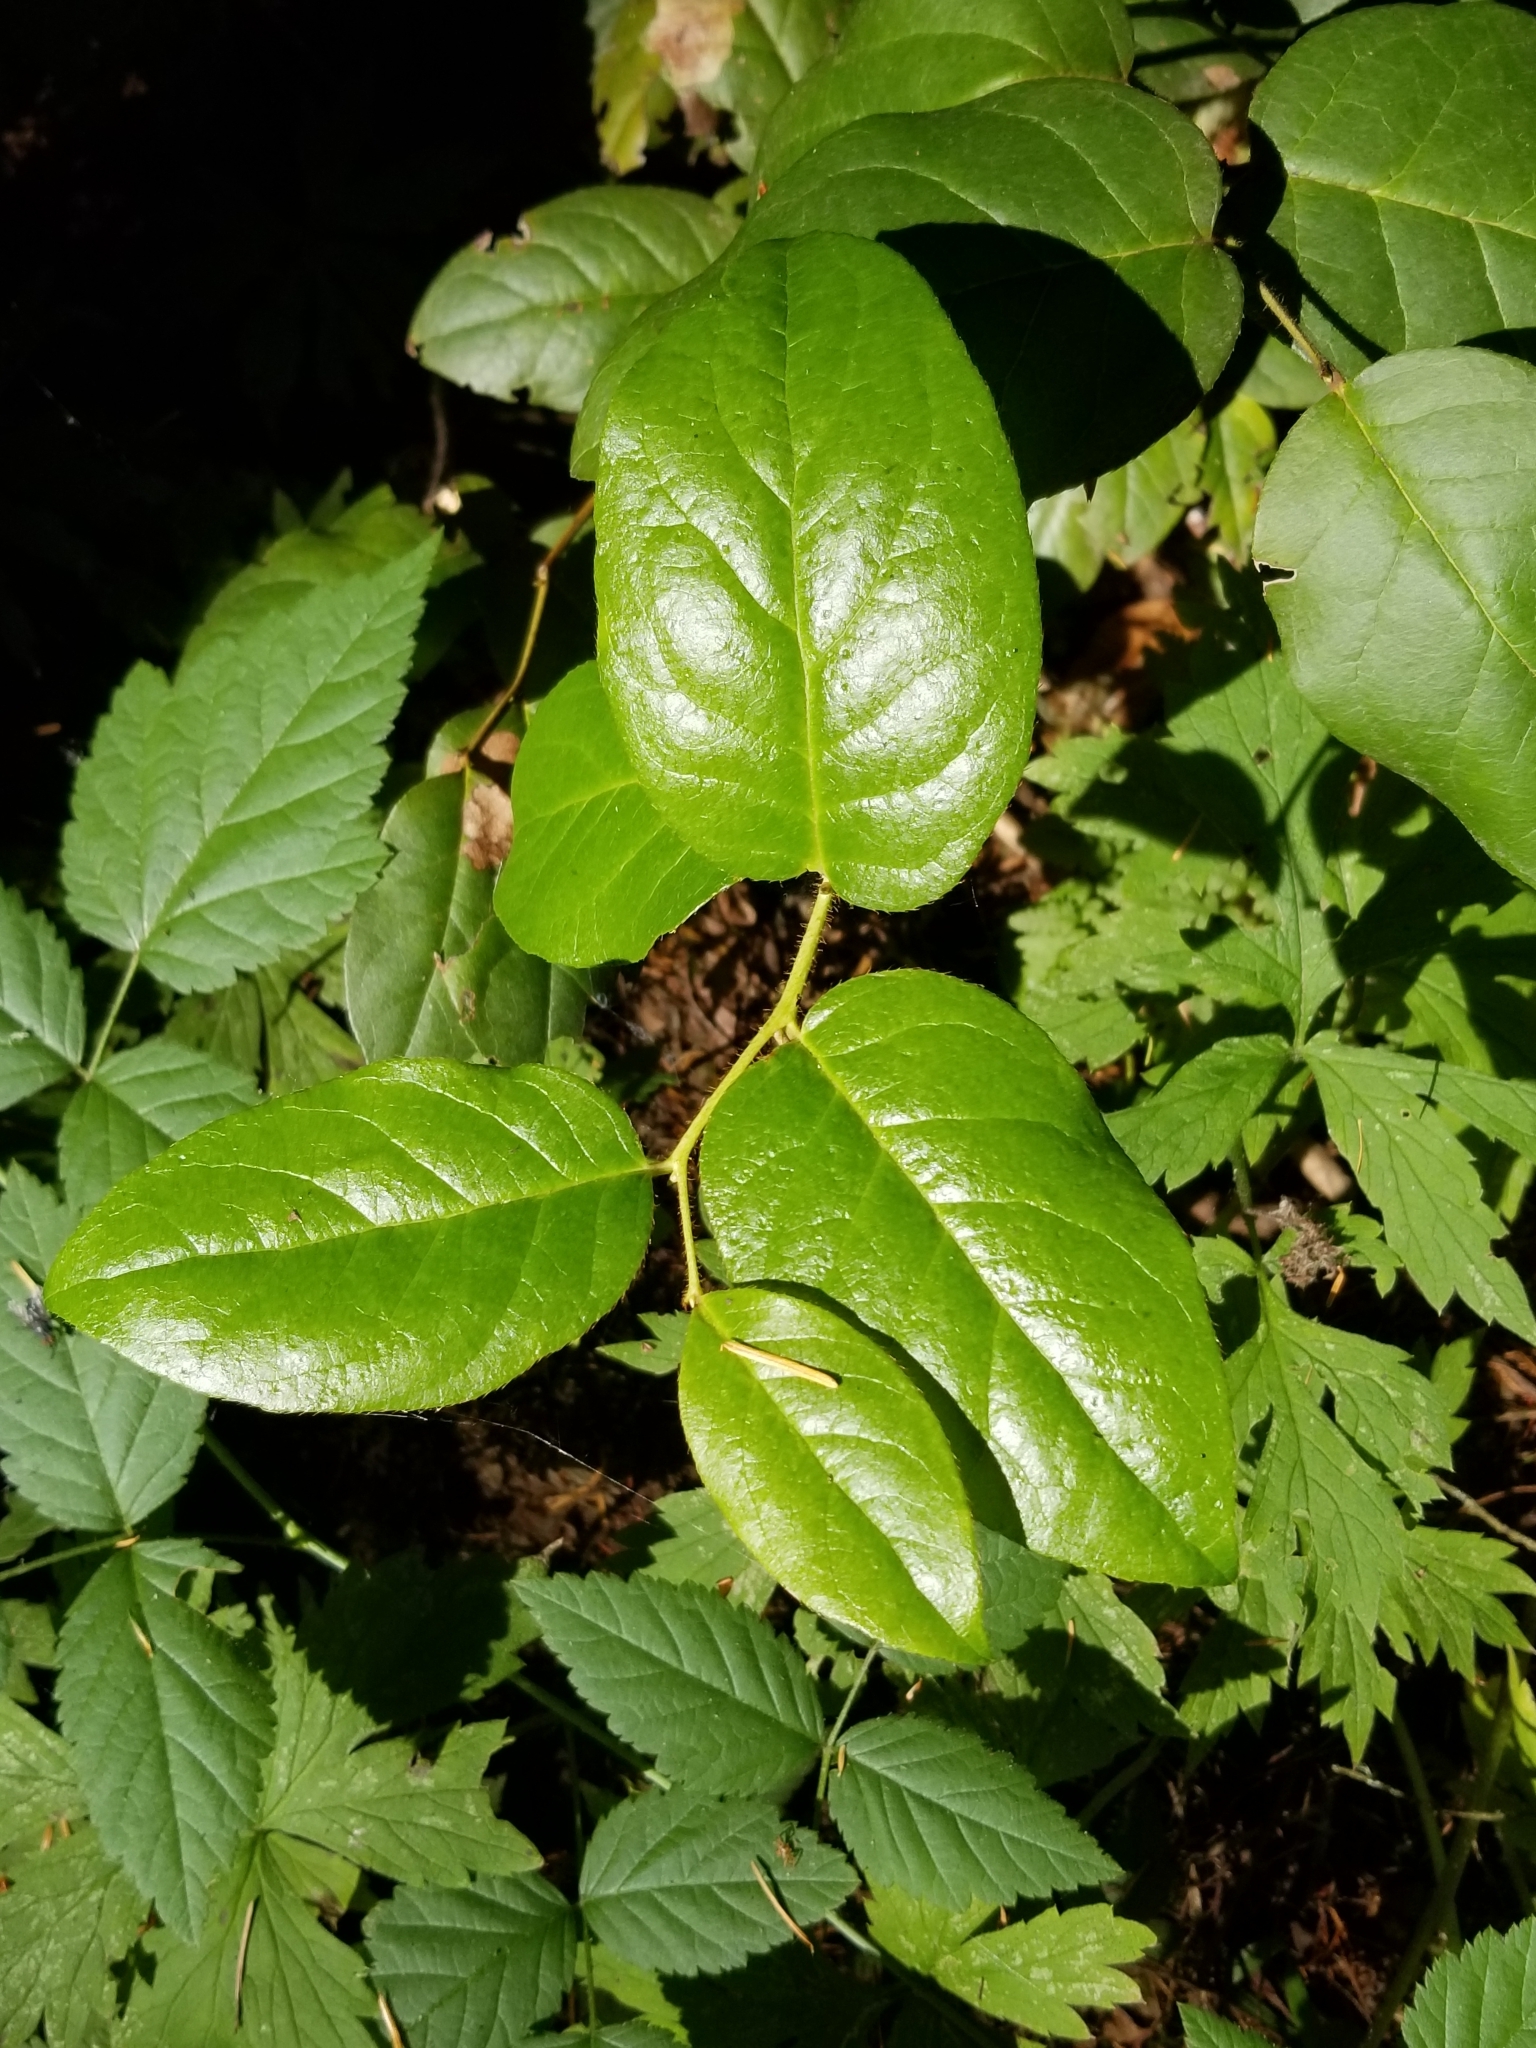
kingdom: Plantae
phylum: Tracheophyta
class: Magnoliopsida
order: Ericales
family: Ericaceae
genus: Gaultheria
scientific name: Gaultheria shallon
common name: Shallon
